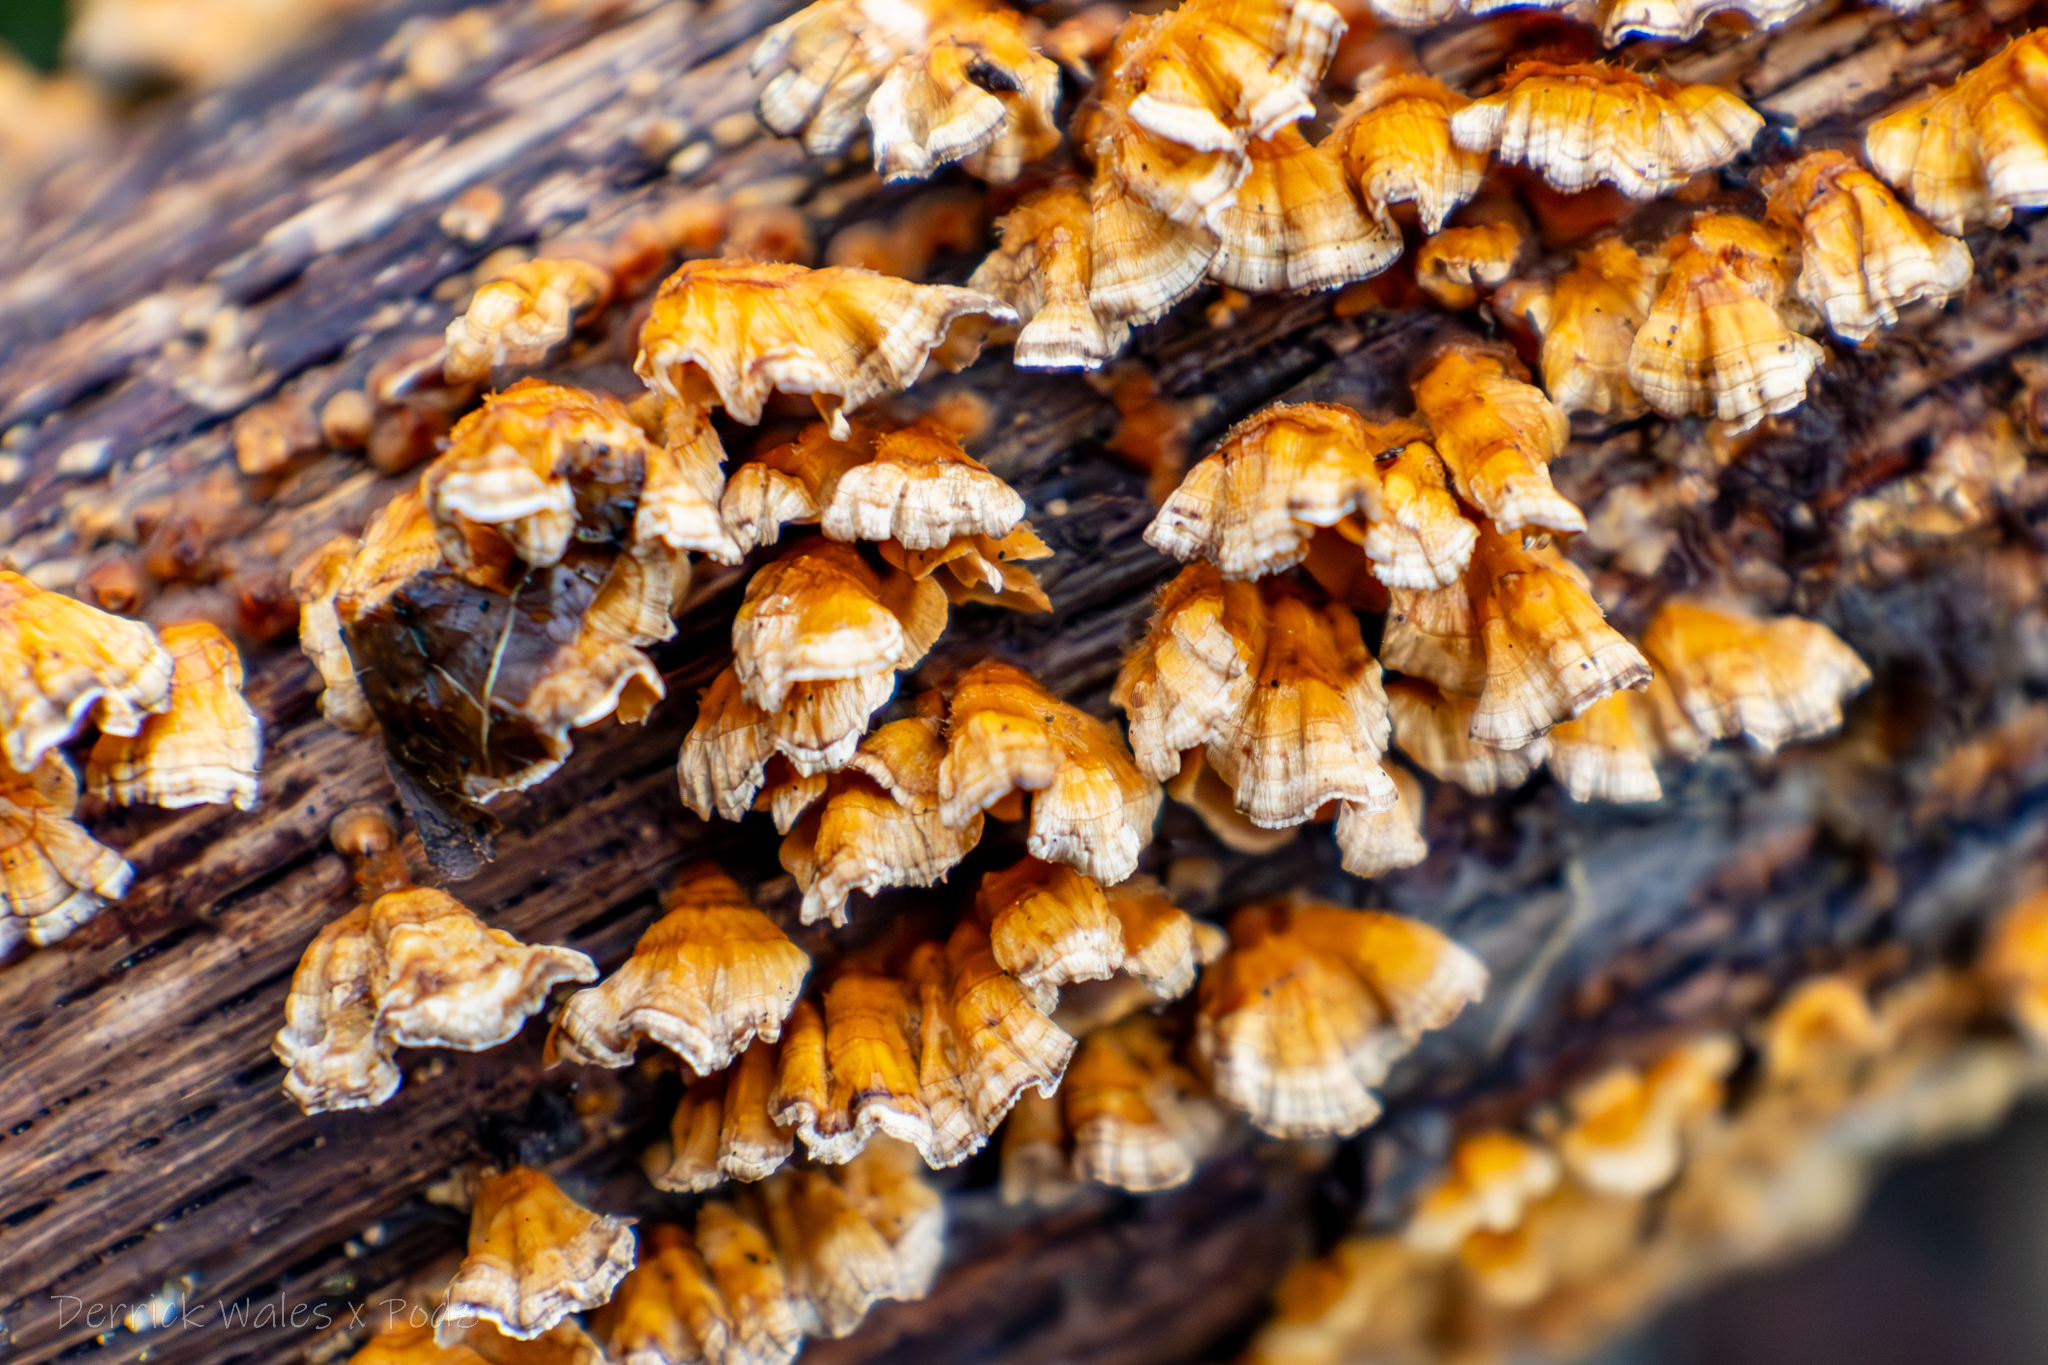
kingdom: Fungi
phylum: Basidiomycota
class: Agaricomycetes
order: Russulales
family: Stereaceae
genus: Stereum
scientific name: Stereum complicatum
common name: Crowded parchment
